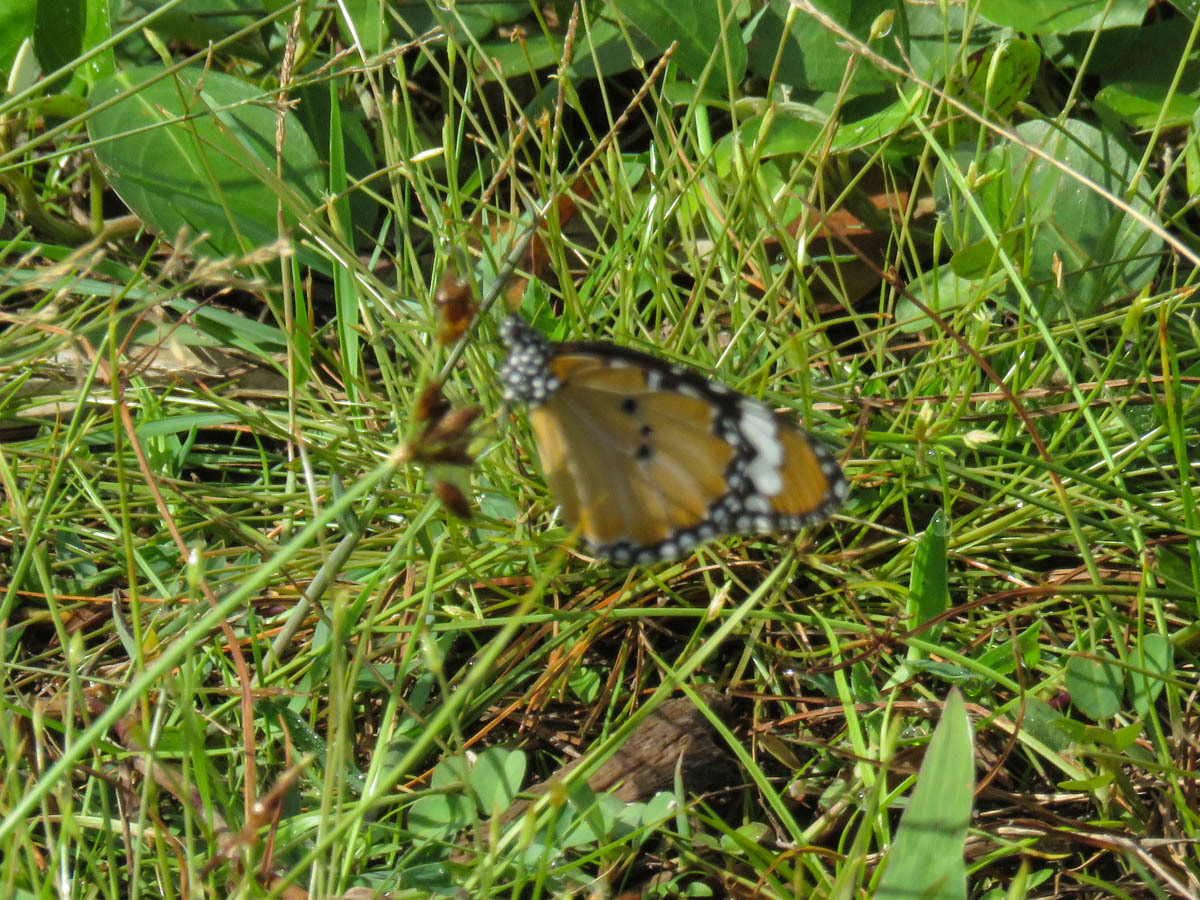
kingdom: Animalia
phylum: Arthropoda
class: Insecta
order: Lepidoptera
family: Nymphalidae
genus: Danaus
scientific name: Danaus chrysippus
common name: Plain tiger
